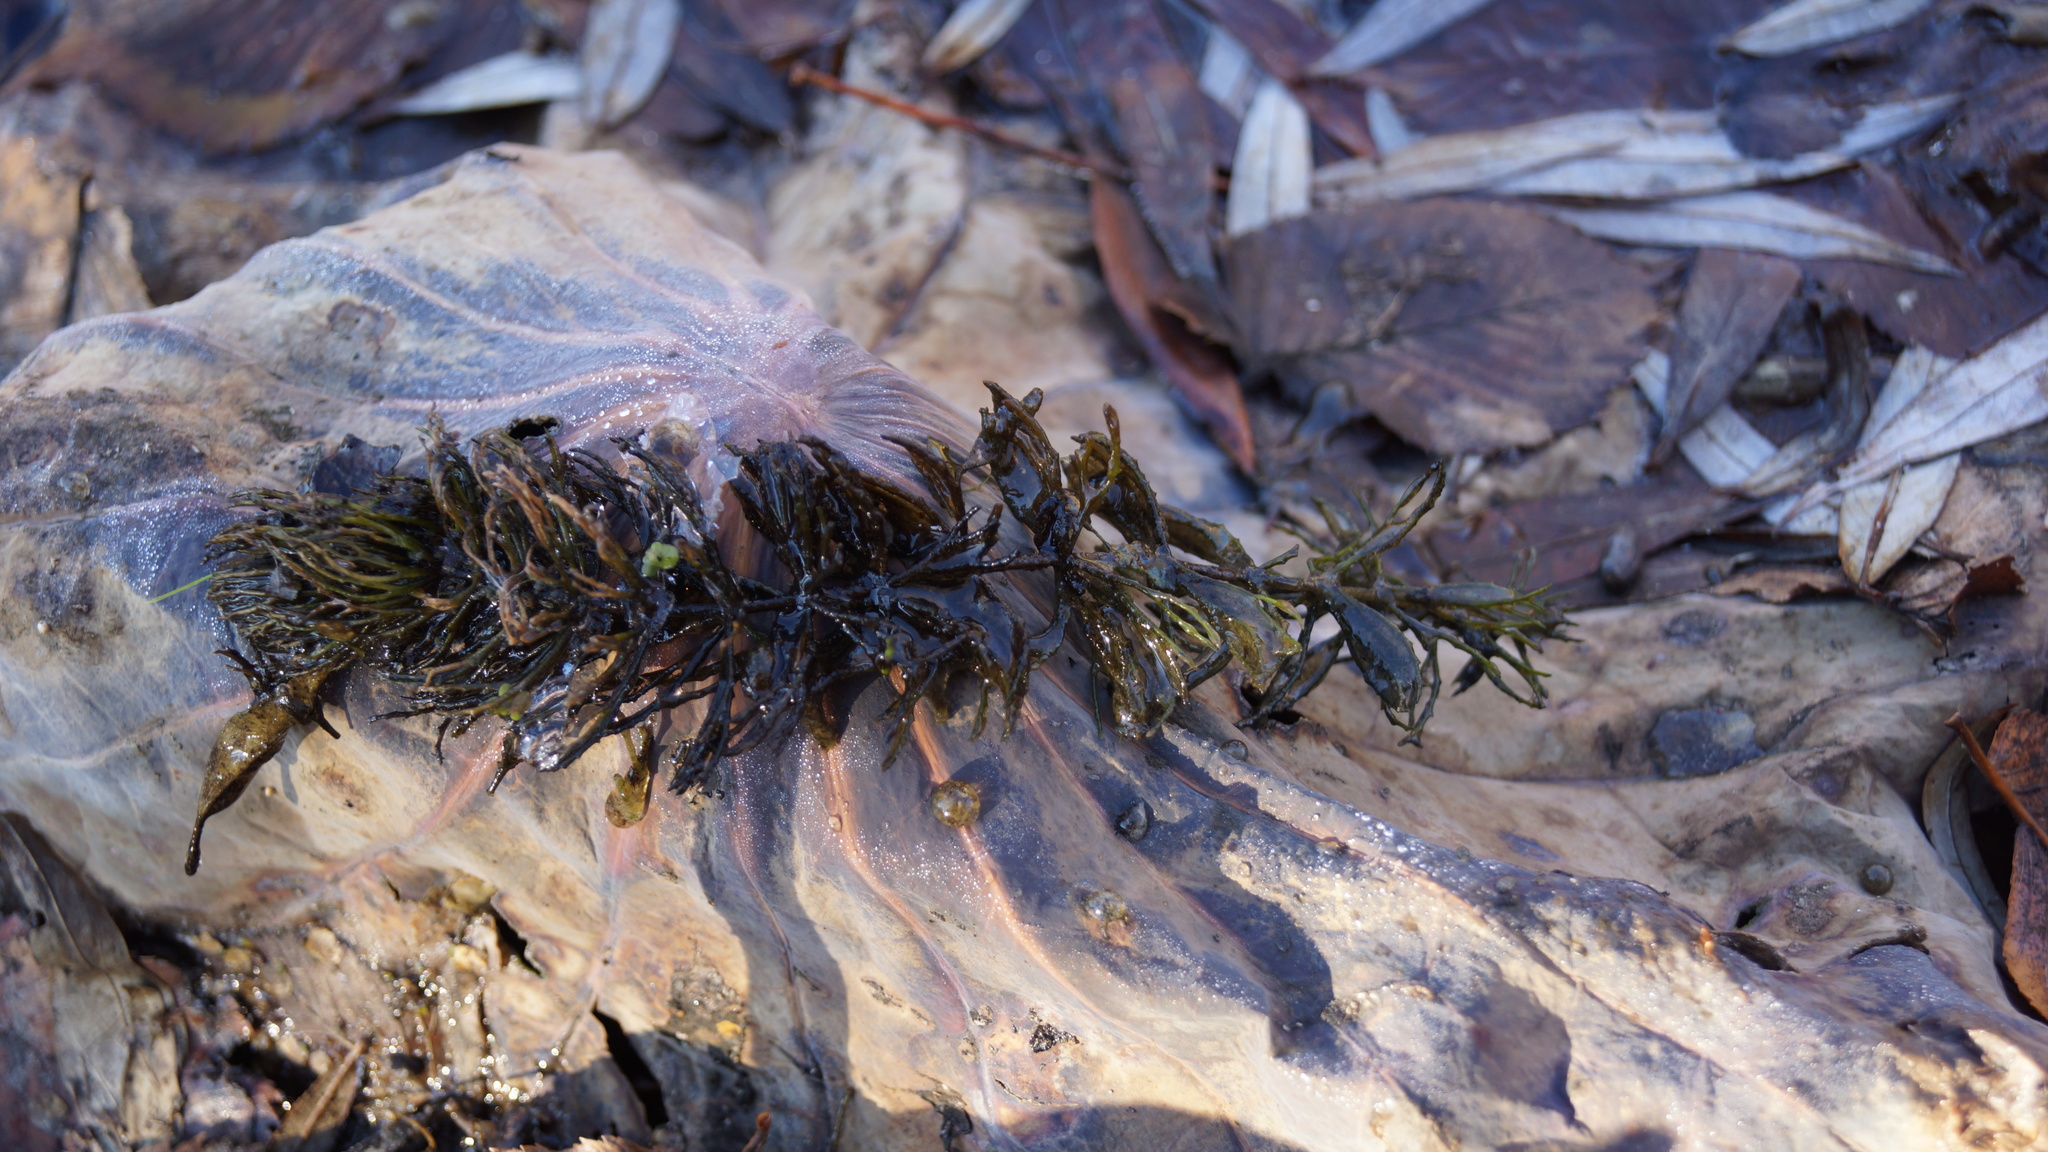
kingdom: Plantae
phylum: Tracheophyta
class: Magnoliopsida
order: Ceratophyllales
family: Ceratophyllaceae
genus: Ceratophyllum
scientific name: Ceratophyllum demersum
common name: Rigid hornwort
